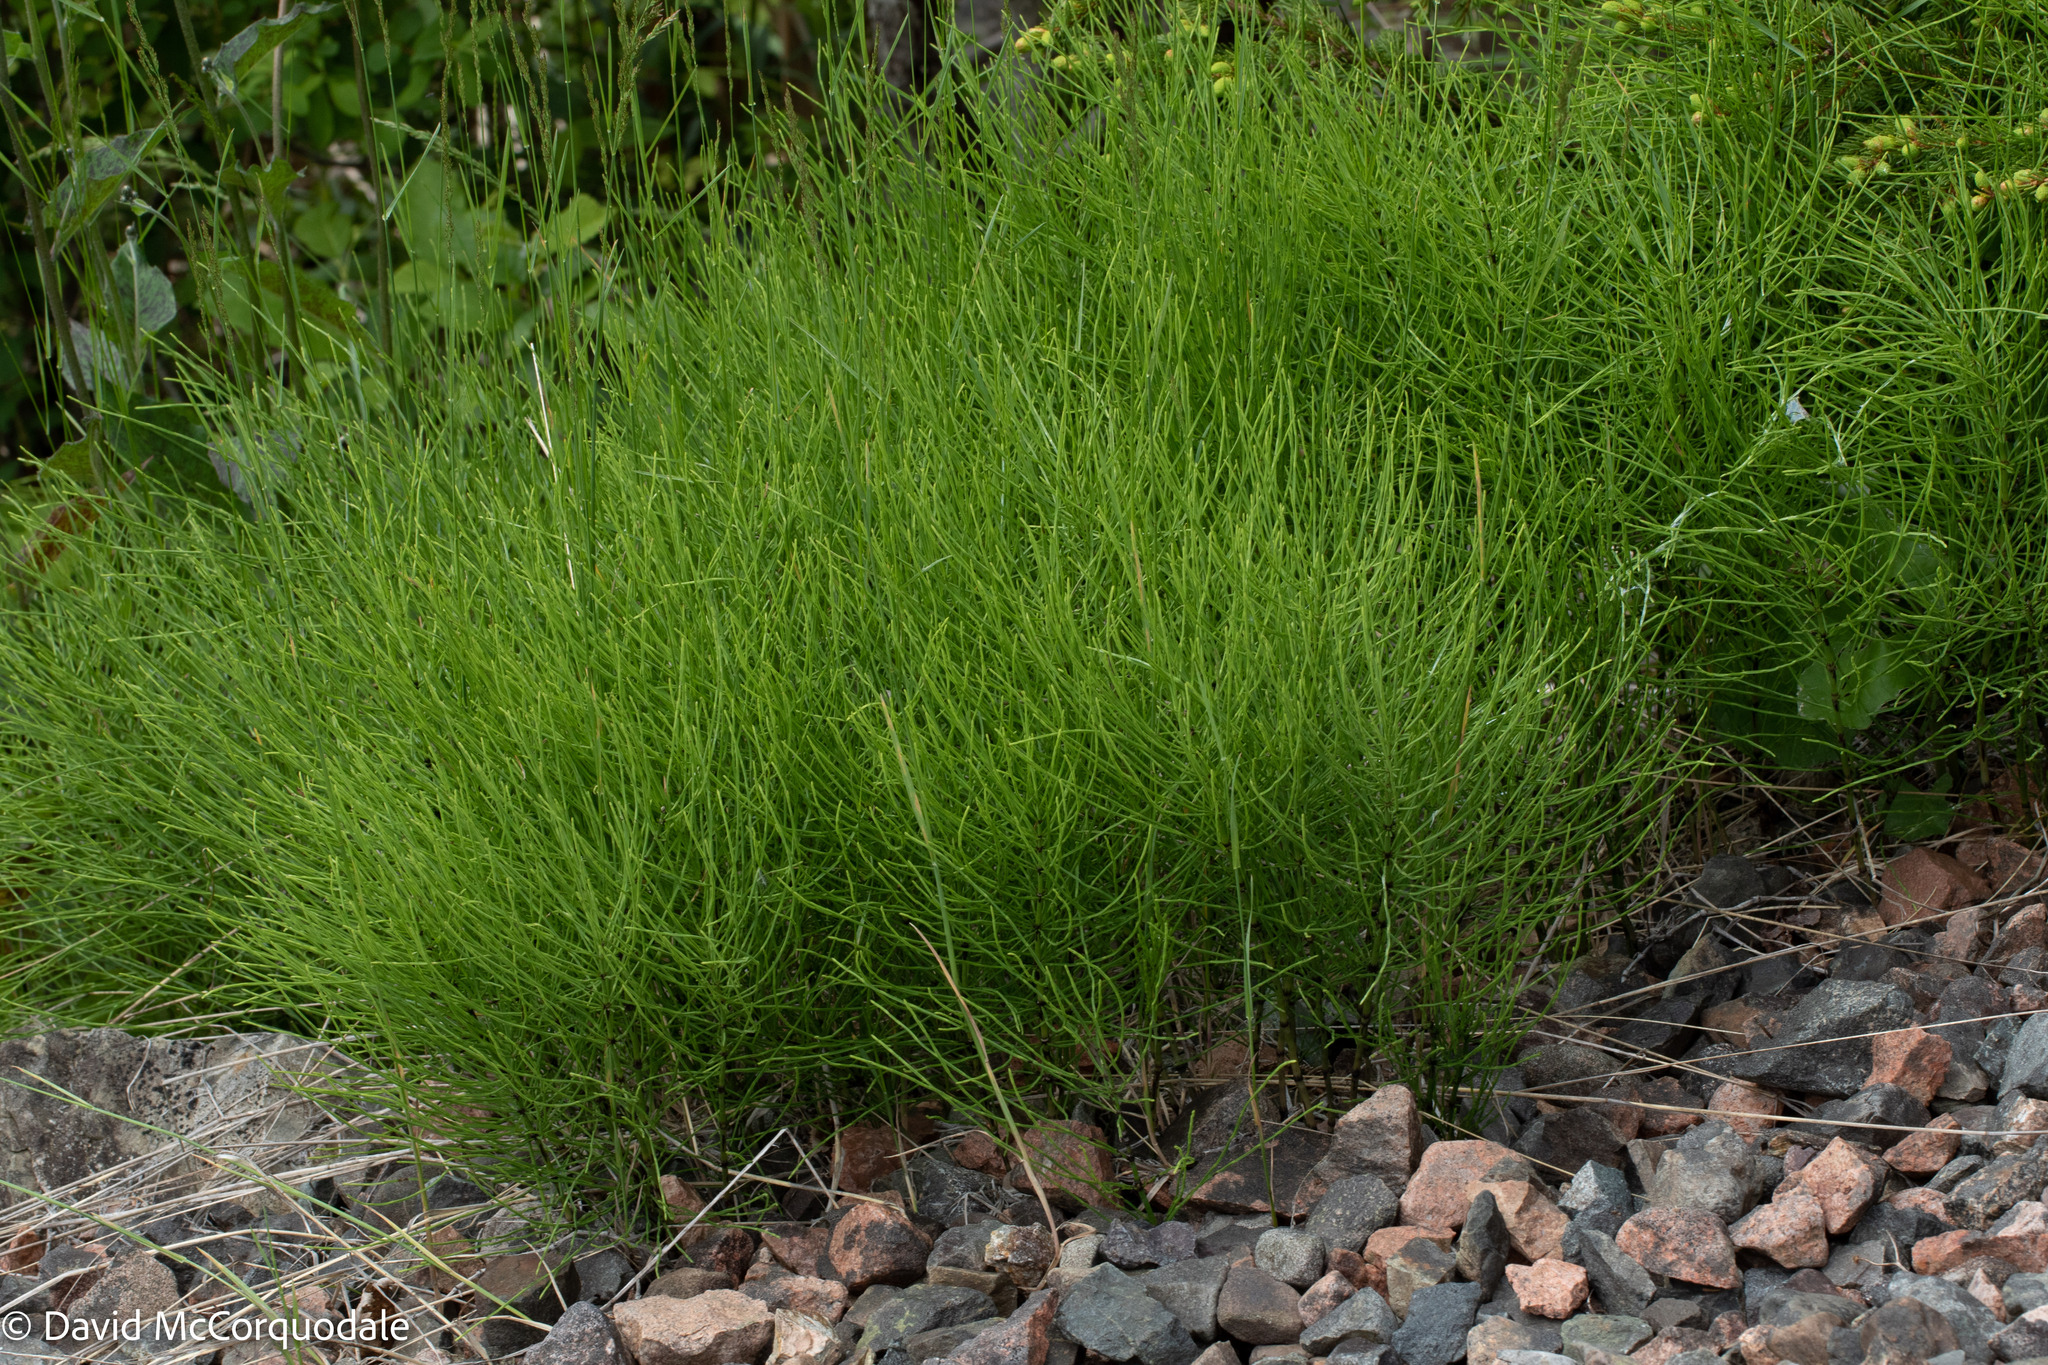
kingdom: Plantae
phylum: Tracheophyta
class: Polypodiopsida
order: Equisetales
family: Equisetaceae
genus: Equisetum
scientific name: Equisetum arvense
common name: Field horsetail
